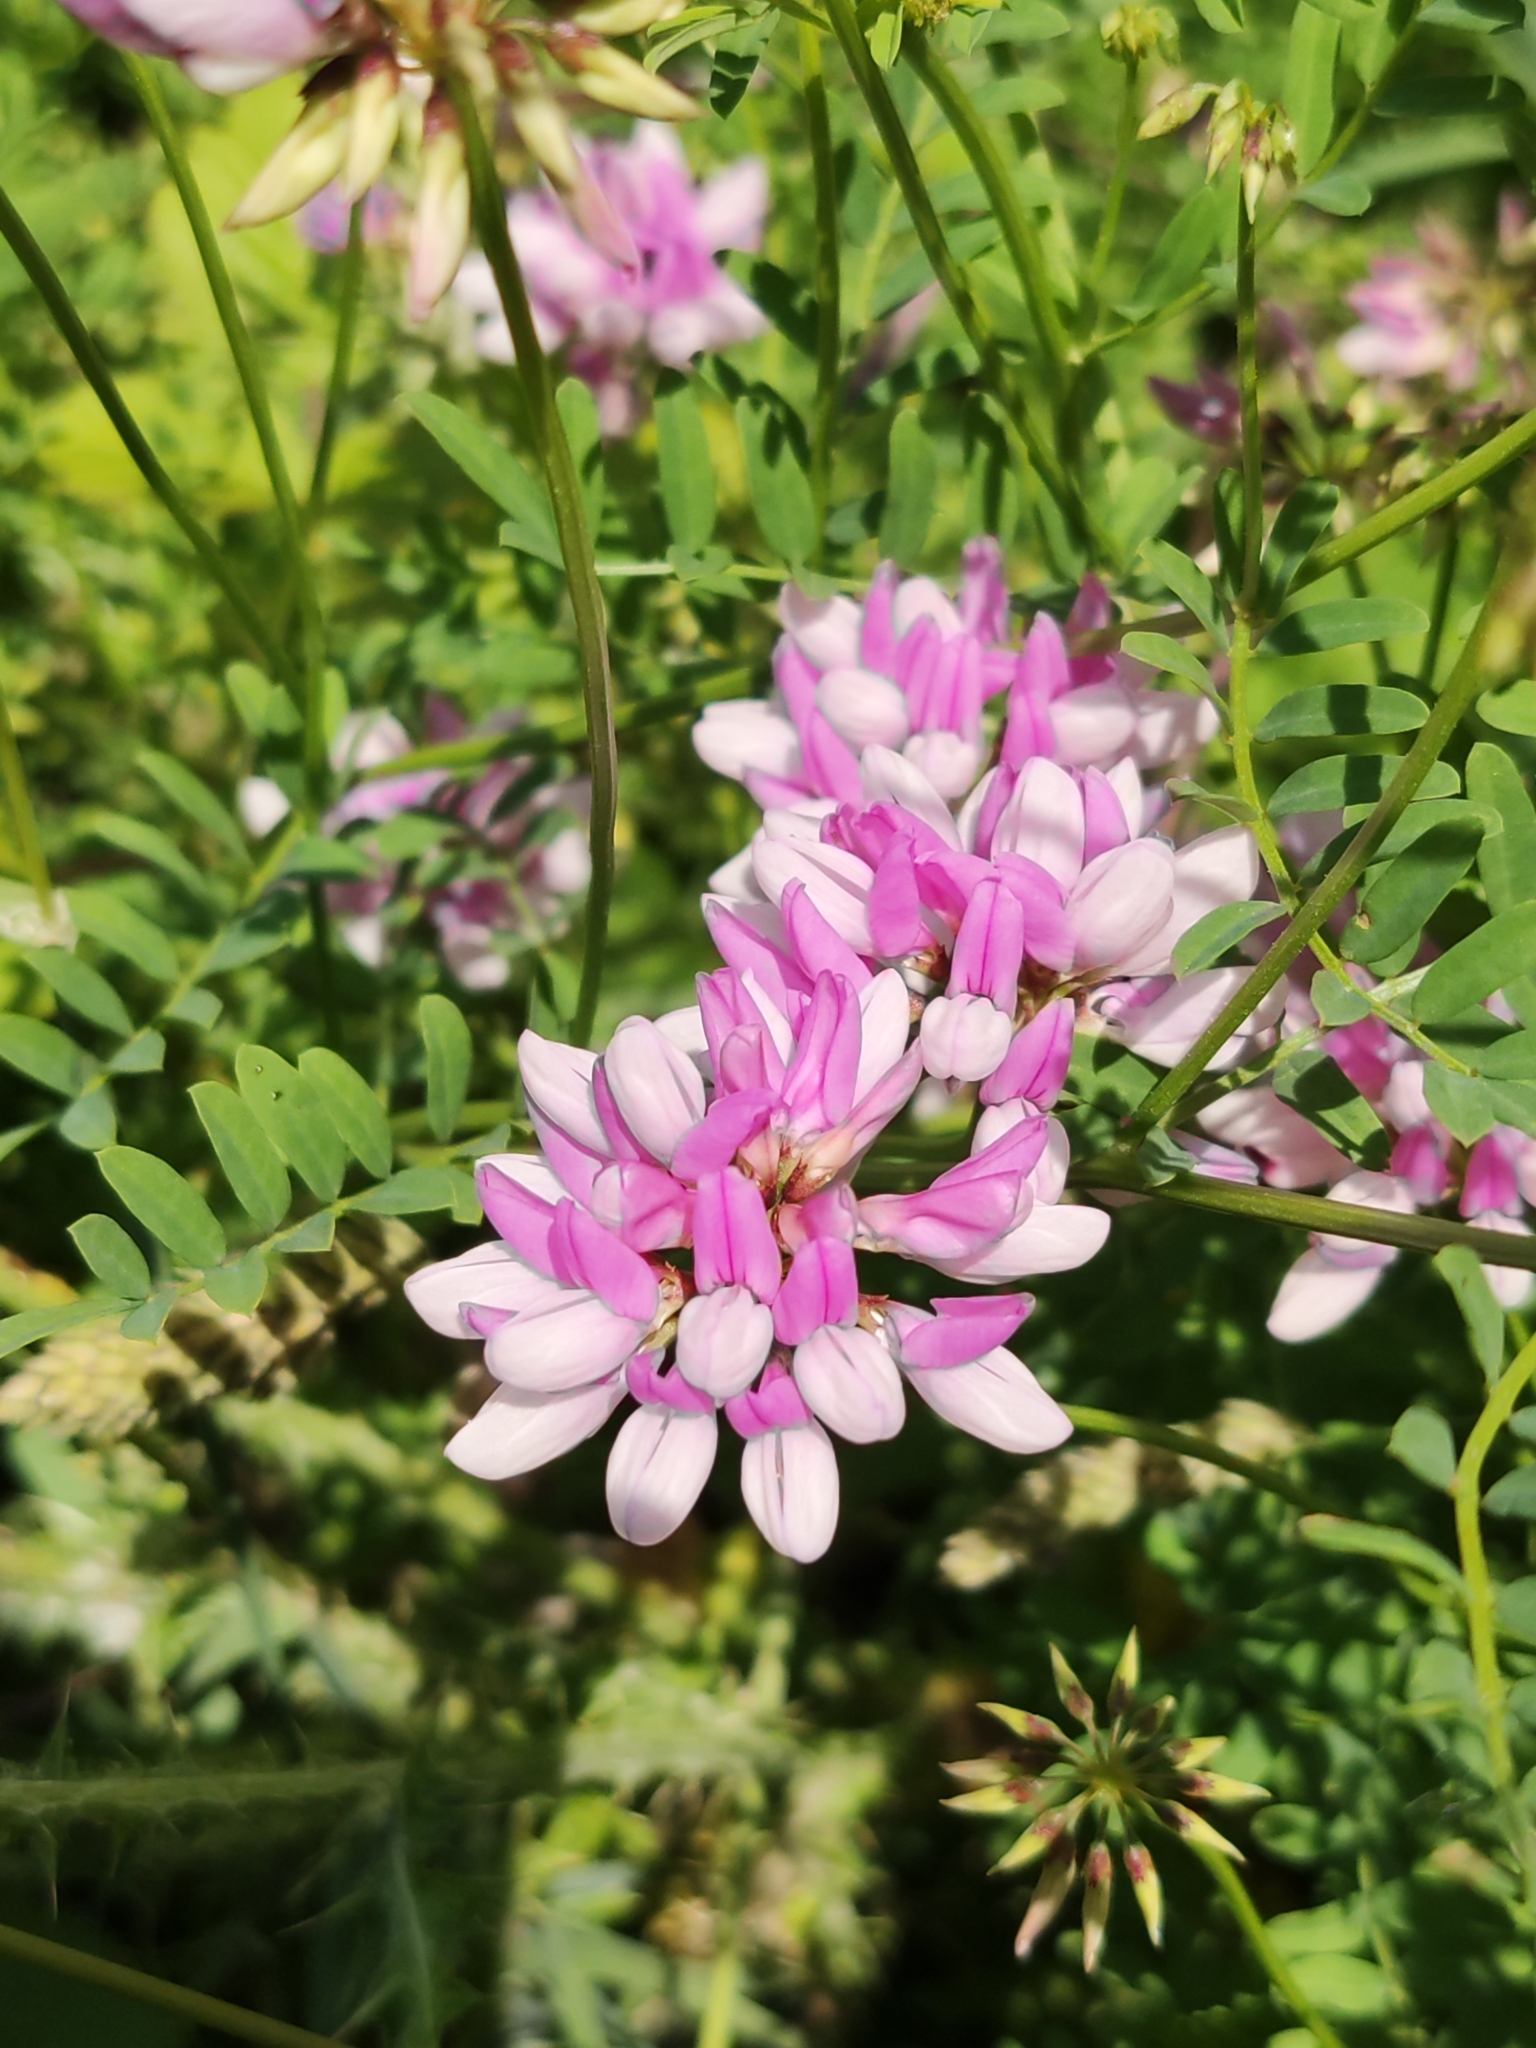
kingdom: Plantae
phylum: Tracheophyta
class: Magnoliopsida
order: Fabales
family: Fabaceae
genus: Coronilla
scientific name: Coronilla varia
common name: Crownvetch
